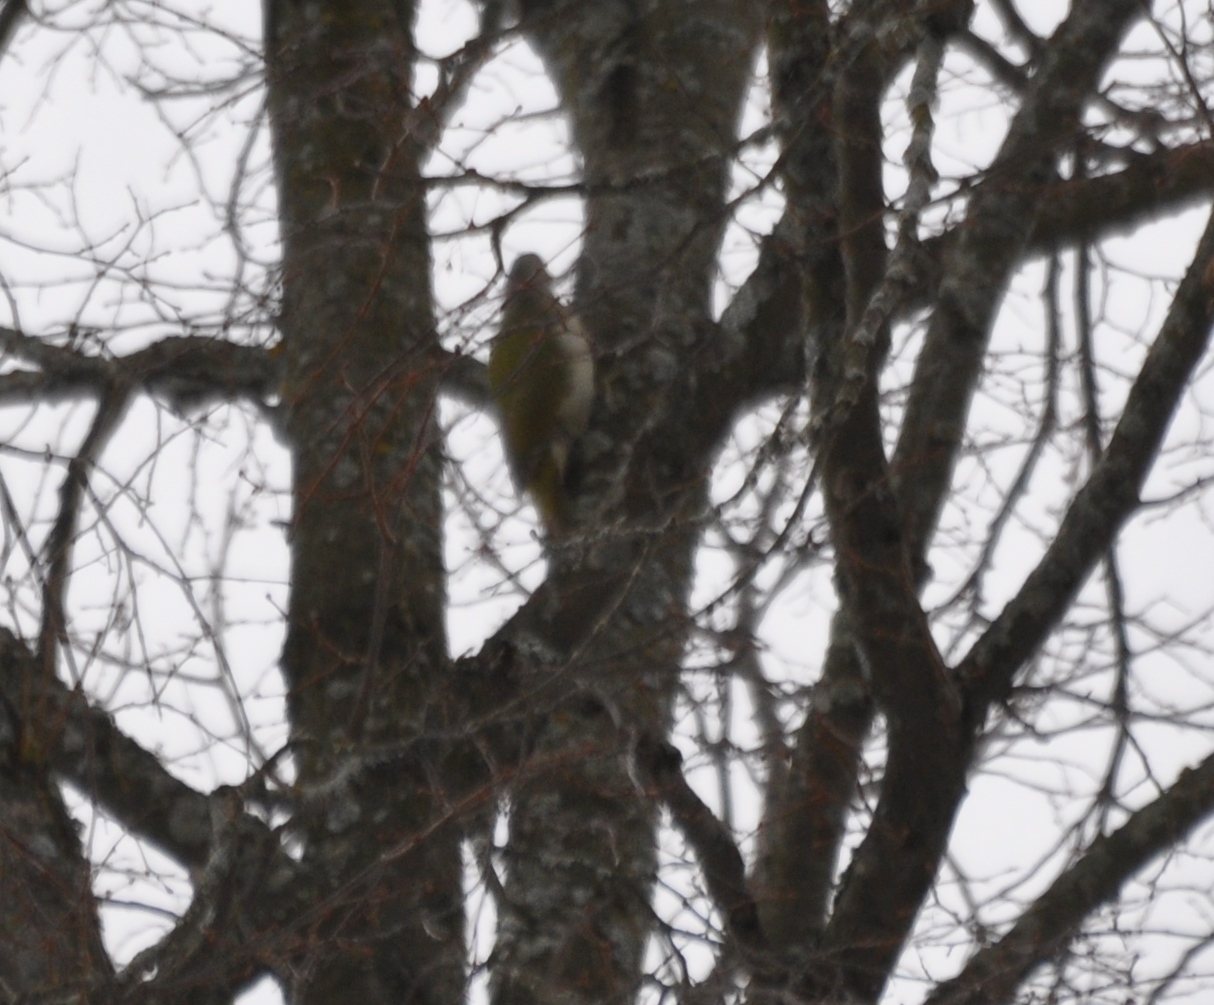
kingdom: Animalia
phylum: Chordata
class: Aves
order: Piciformes
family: Picidae
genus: Picus
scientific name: Picus canus
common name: Grey-headed woodpecker
